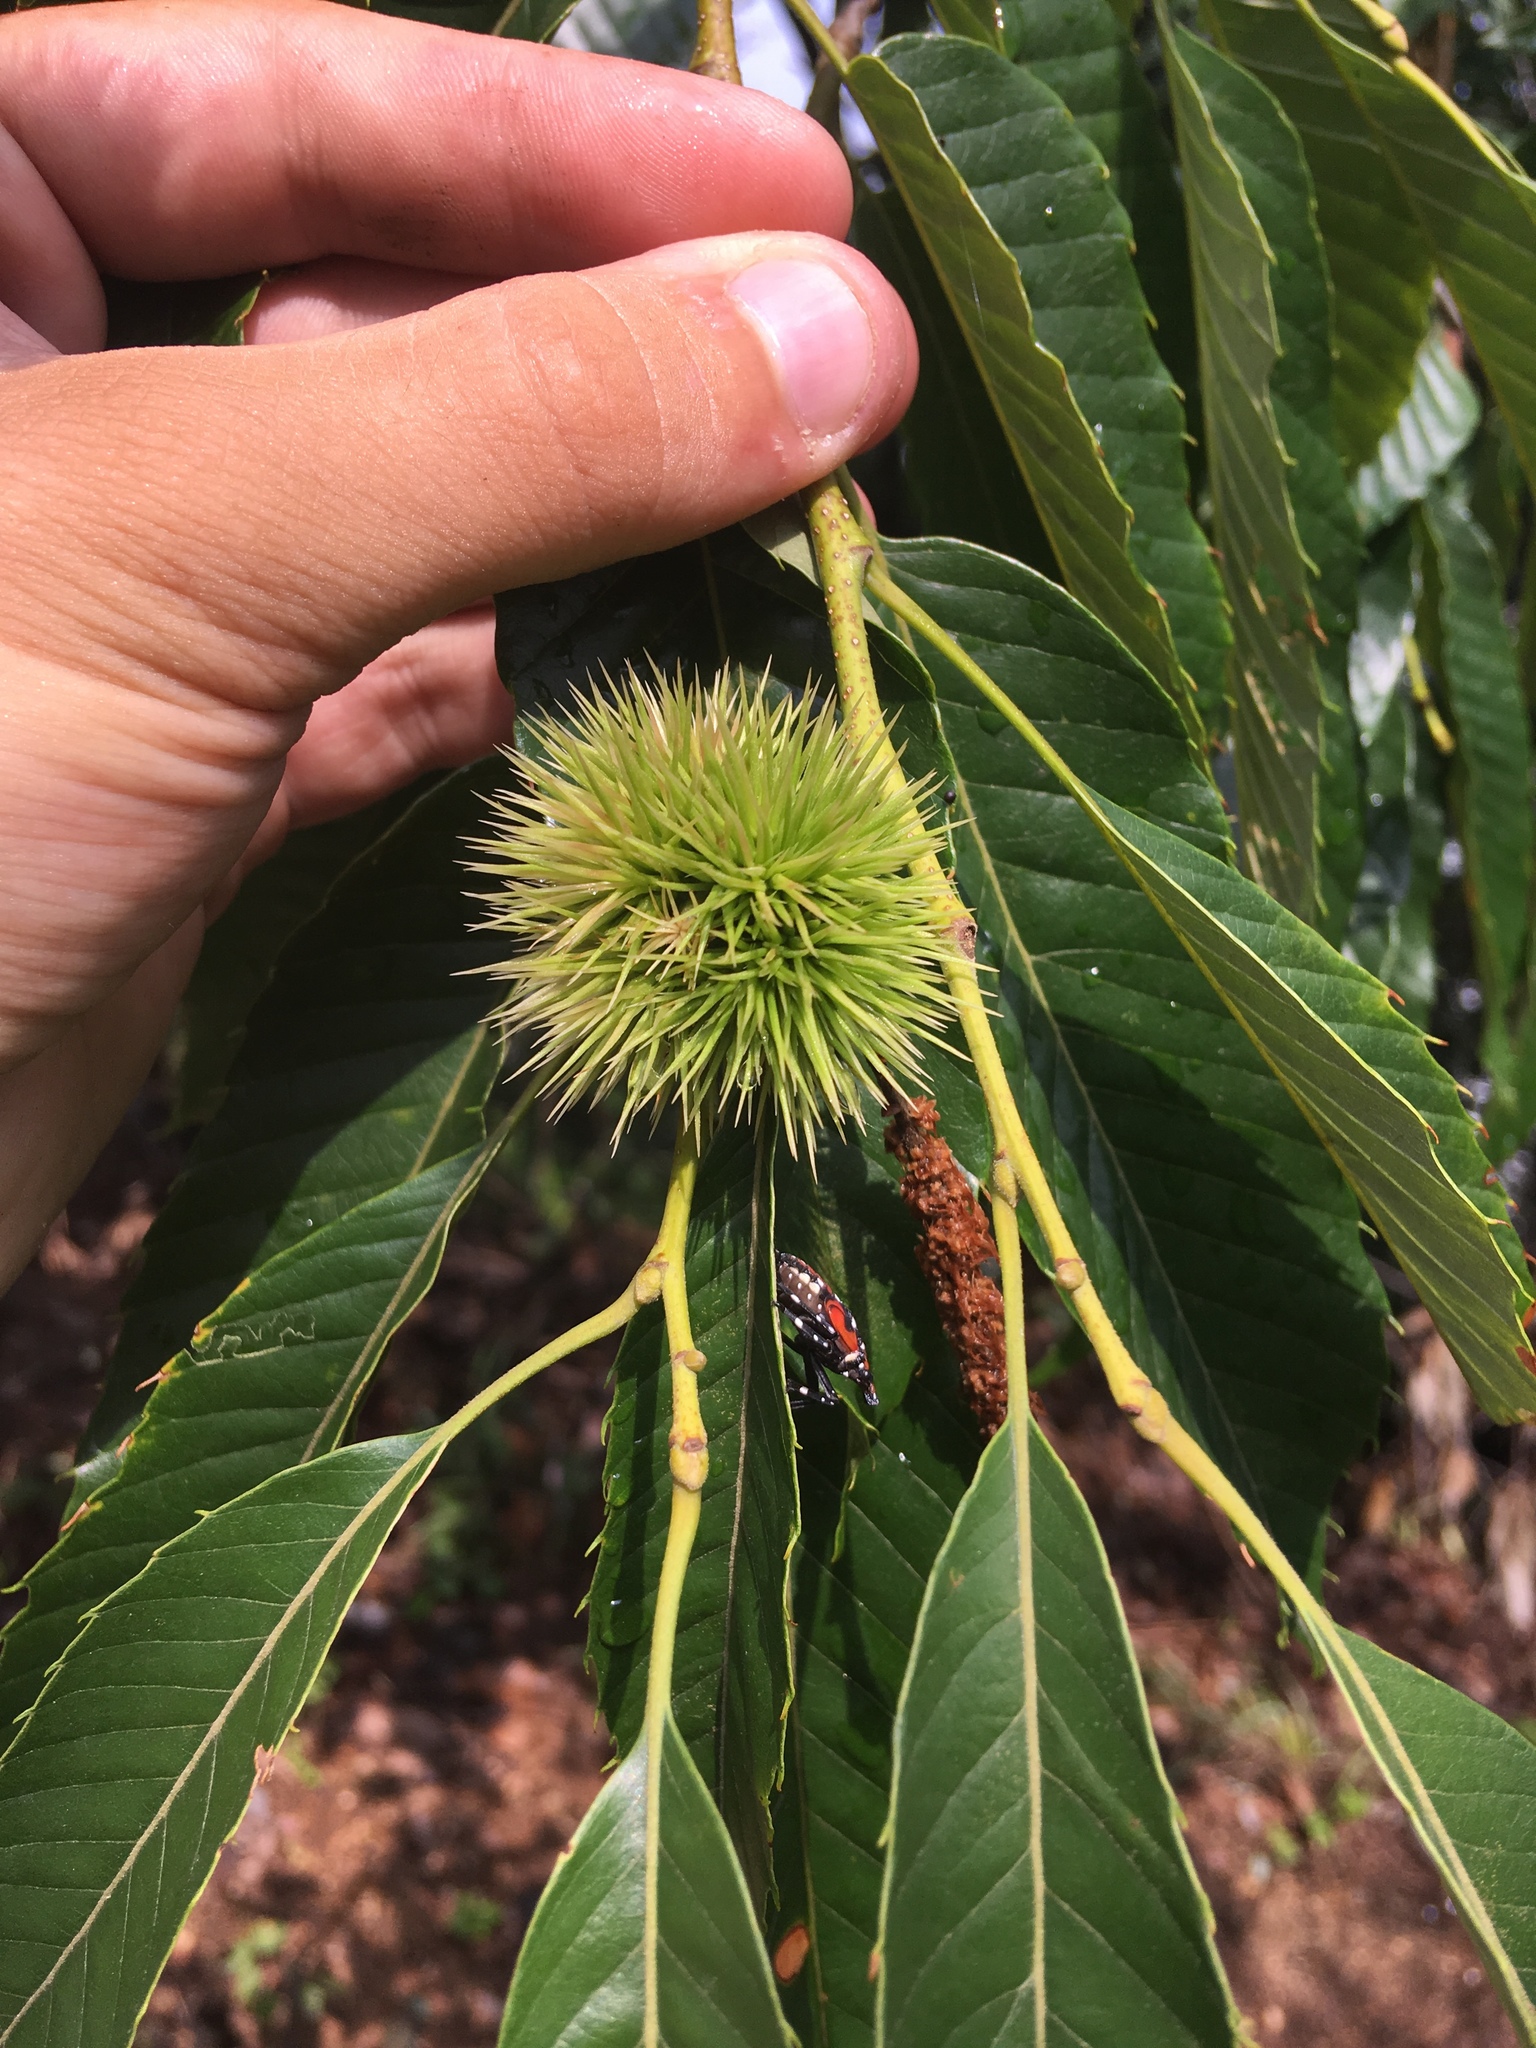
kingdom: Plantae
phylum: Tracheophyta
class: Magnoliopsida
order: Fagales
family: Fagaceae
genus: Castanea
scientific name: Castanea crenata
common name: Japanese chestnut
